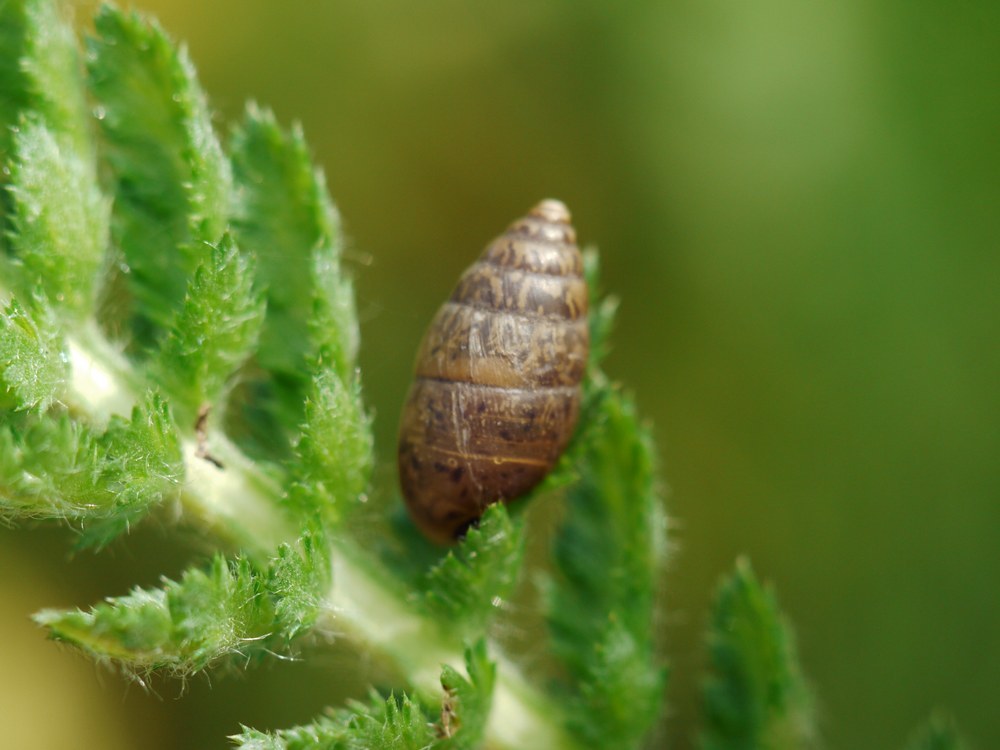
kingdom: Animalia
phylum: Mollusca
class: Gastropoda
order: Stylommatophora
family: Enidae
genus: Chondrula
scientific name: Chondrula tridens
